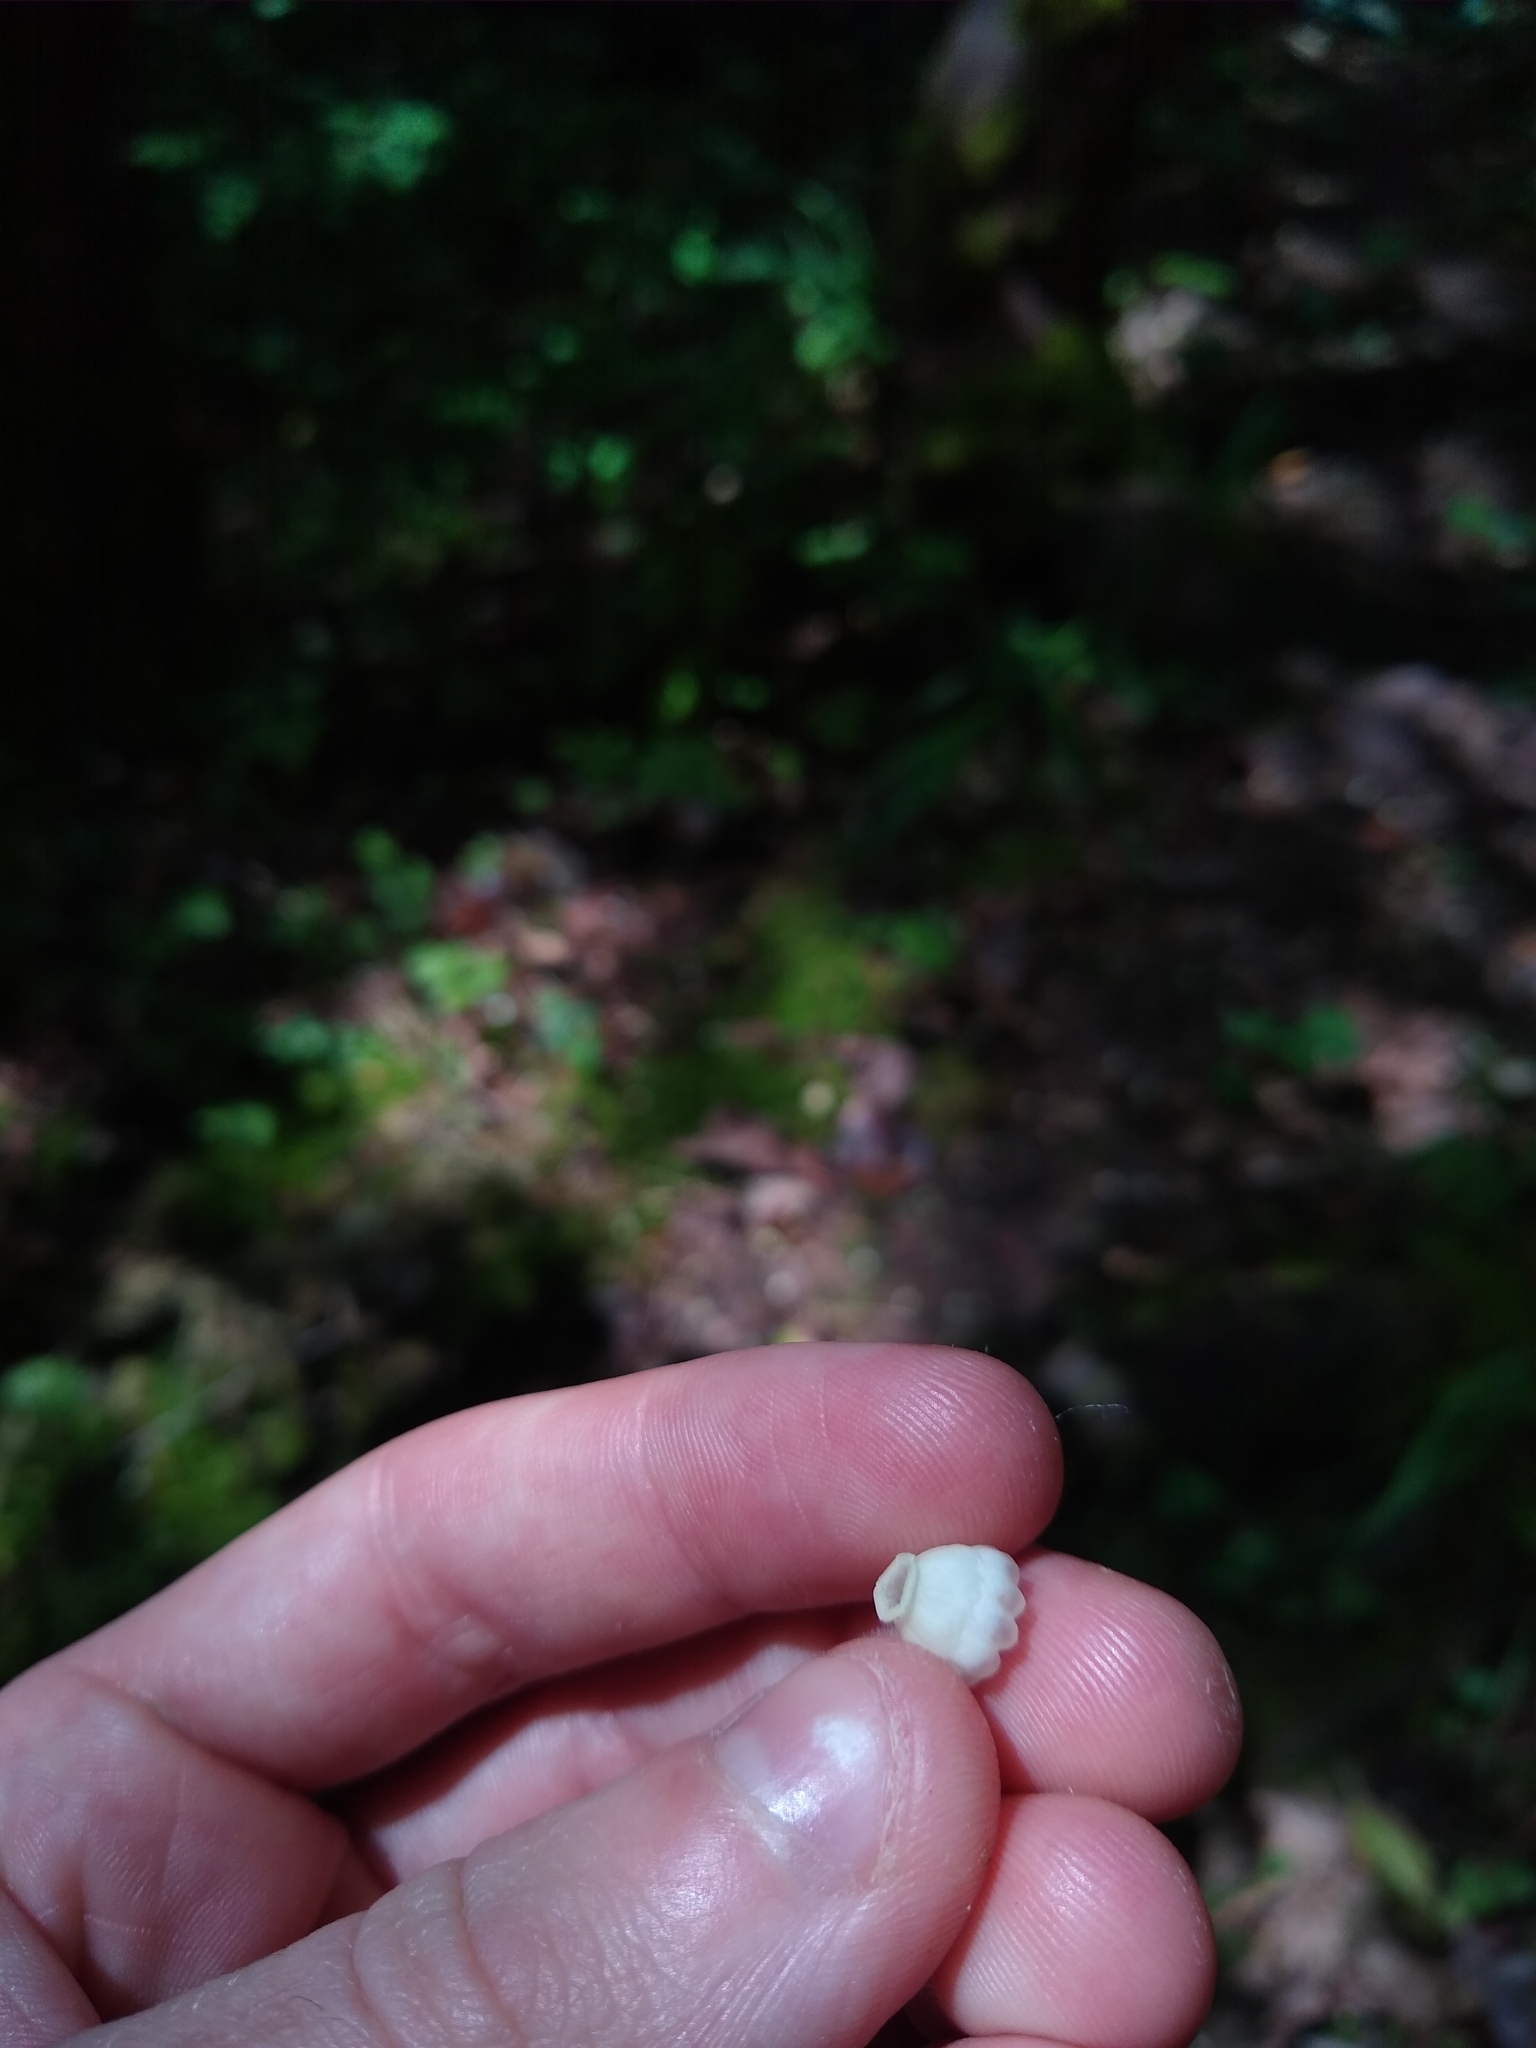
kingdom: Plantae
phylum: Tracheophyta
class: Magnoliopsida
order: Ericales
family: Ericaceae
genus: Arbutus
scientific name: Arbutus menziesii
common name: Pacific madrone
